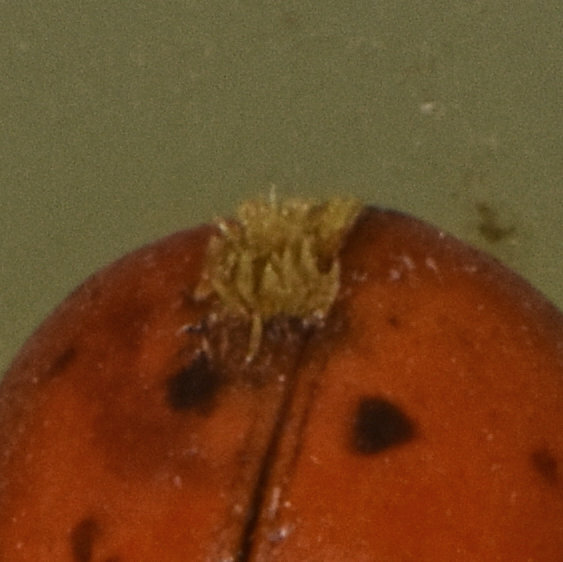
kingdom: Fungi
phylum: Ascomycota
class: Laboulbeniomycetes
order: Laboulbeniales
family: Laboulbeniaceae
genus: Hesperomyces
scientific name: Hesperomyces harmoniae
